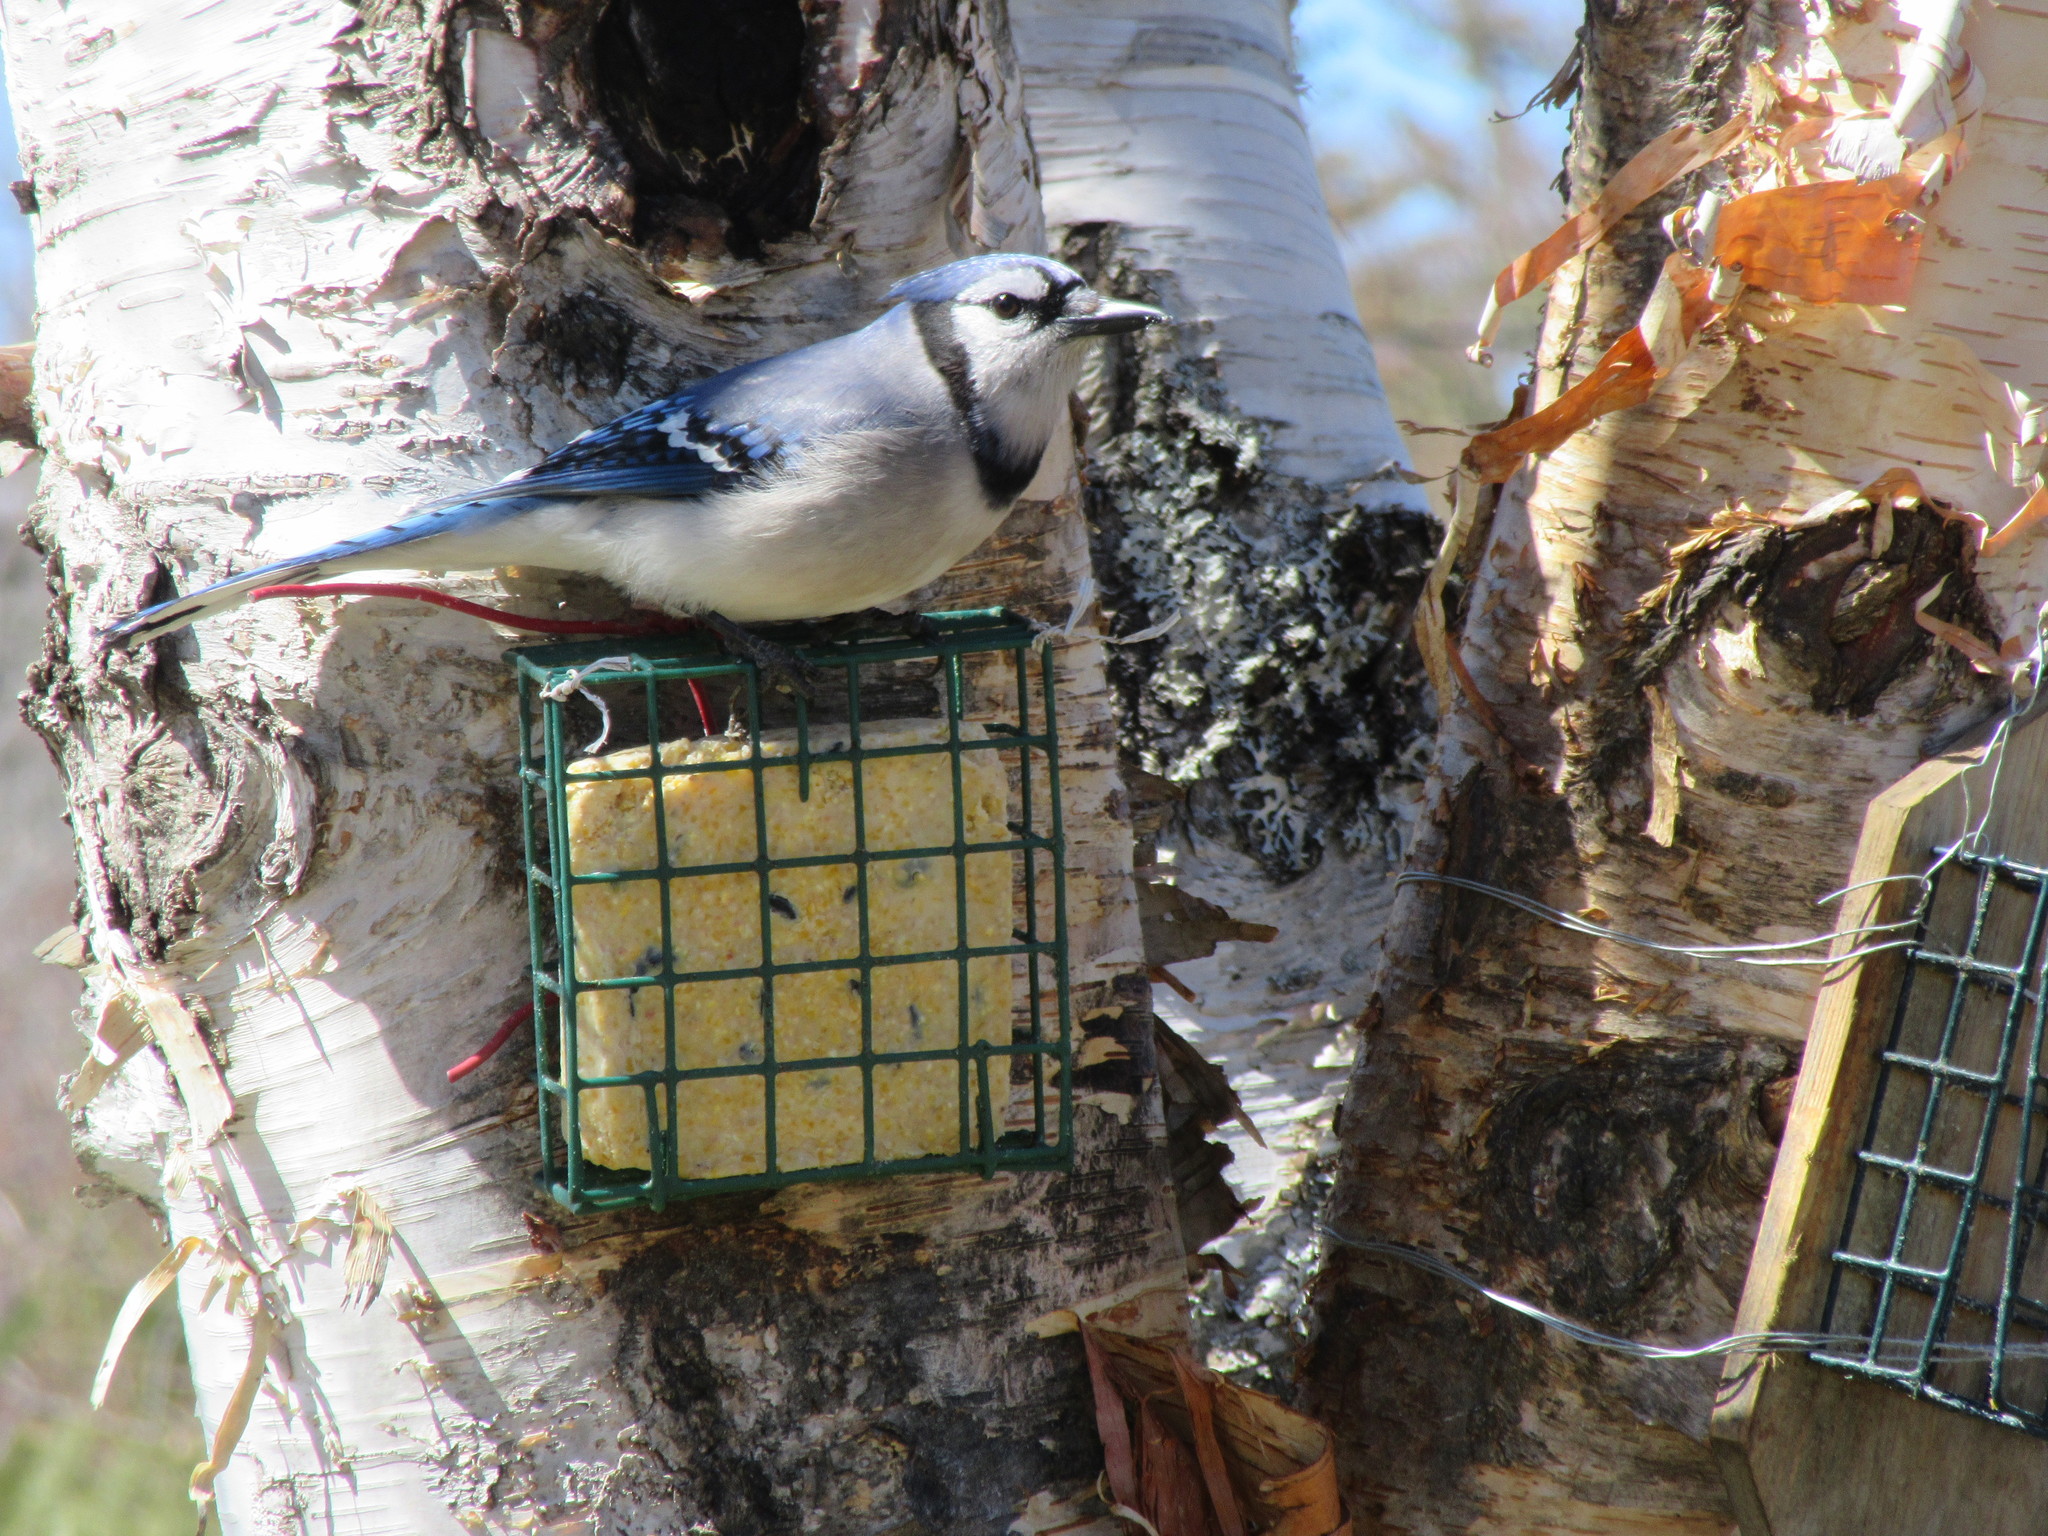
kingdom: Animalia
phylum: Chordata
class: Aves
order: Passeriformes
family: Corvidae
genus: Cyanocitta
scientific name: Cyanocitta cristata
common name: Blue jay
